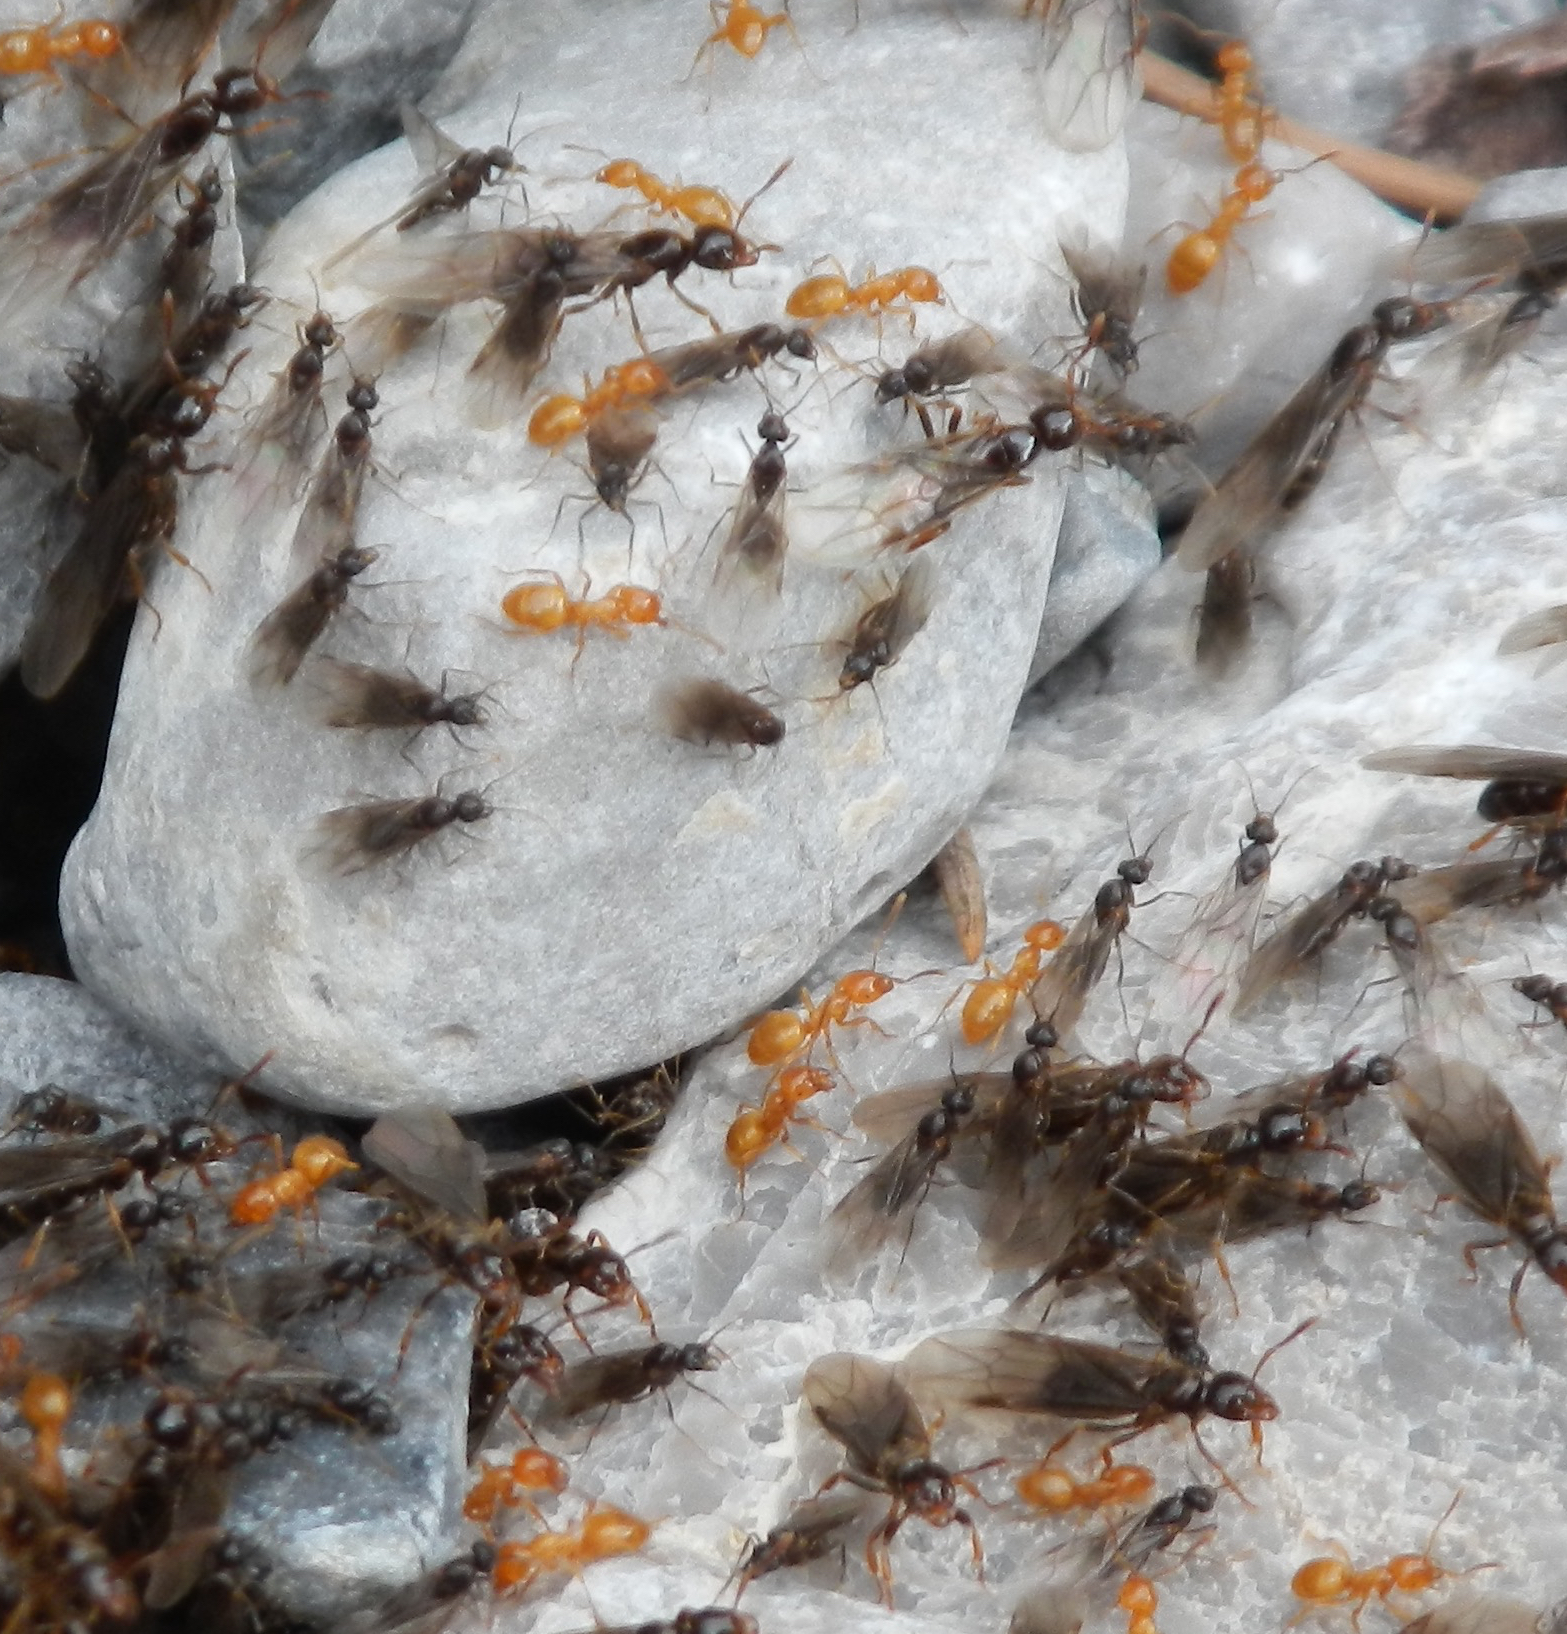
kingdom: Animalia
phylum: Arthropoda
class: Insecta
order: Hymenoptera
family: Formicidae
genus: Lasius
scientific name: Lasius
